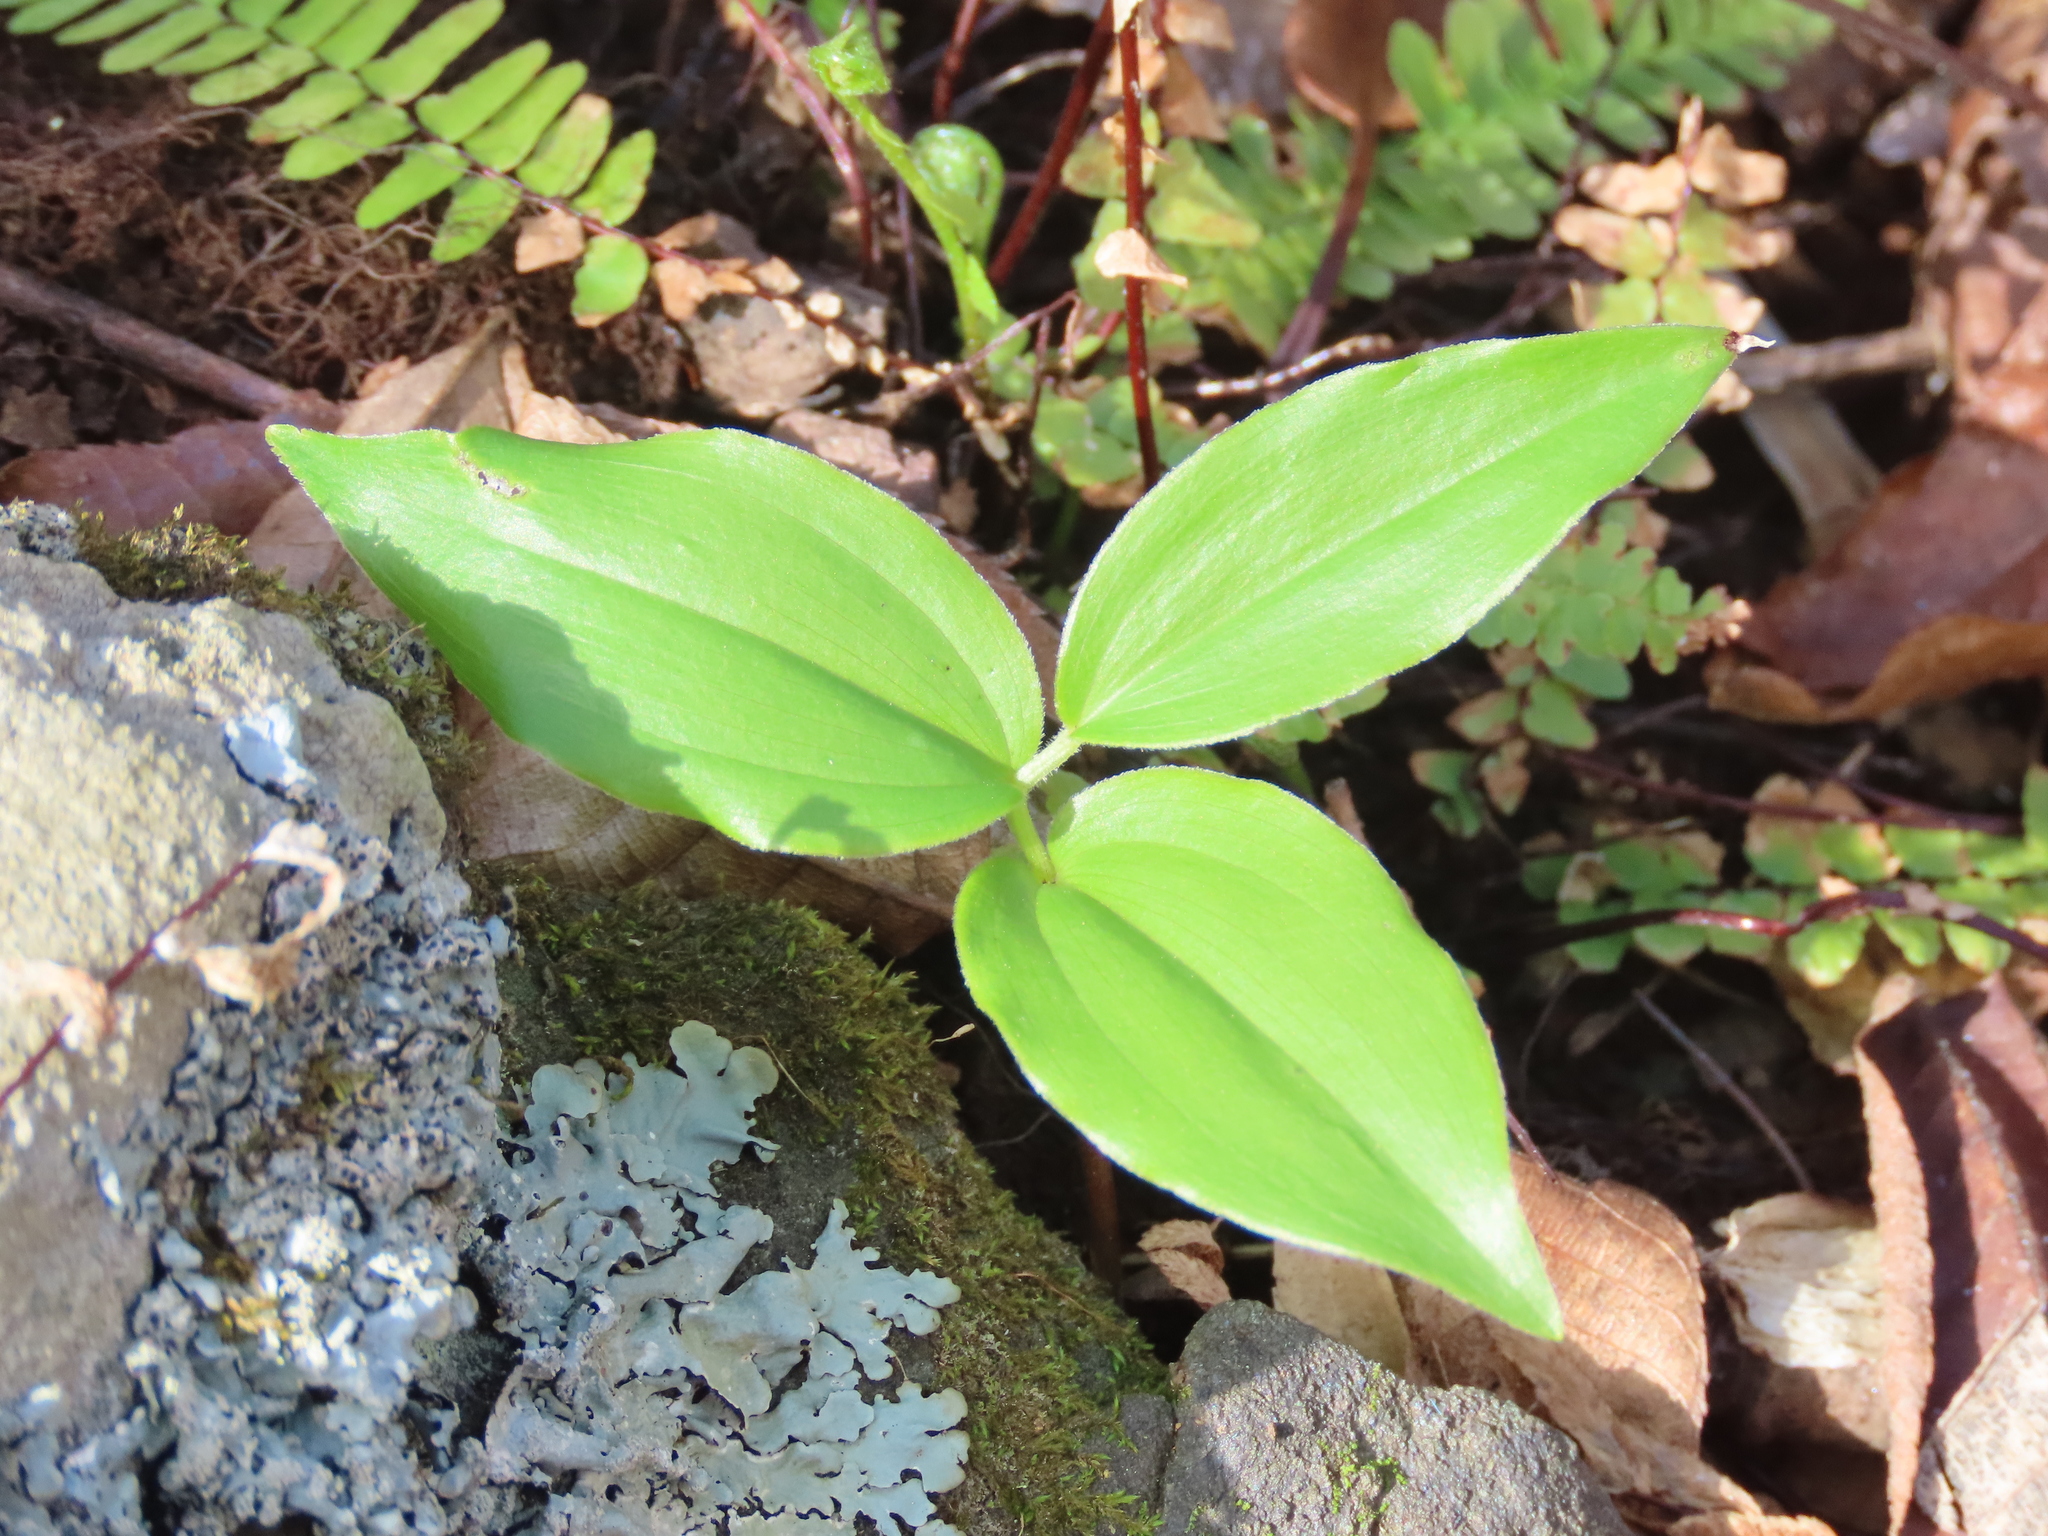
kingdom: Plantae
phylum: Tracheophyta
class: Liliopsida
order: Asparagales
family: Asparagaceae
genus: Maianthemum
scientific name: Maianthemum racemosum
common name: False spikenard
